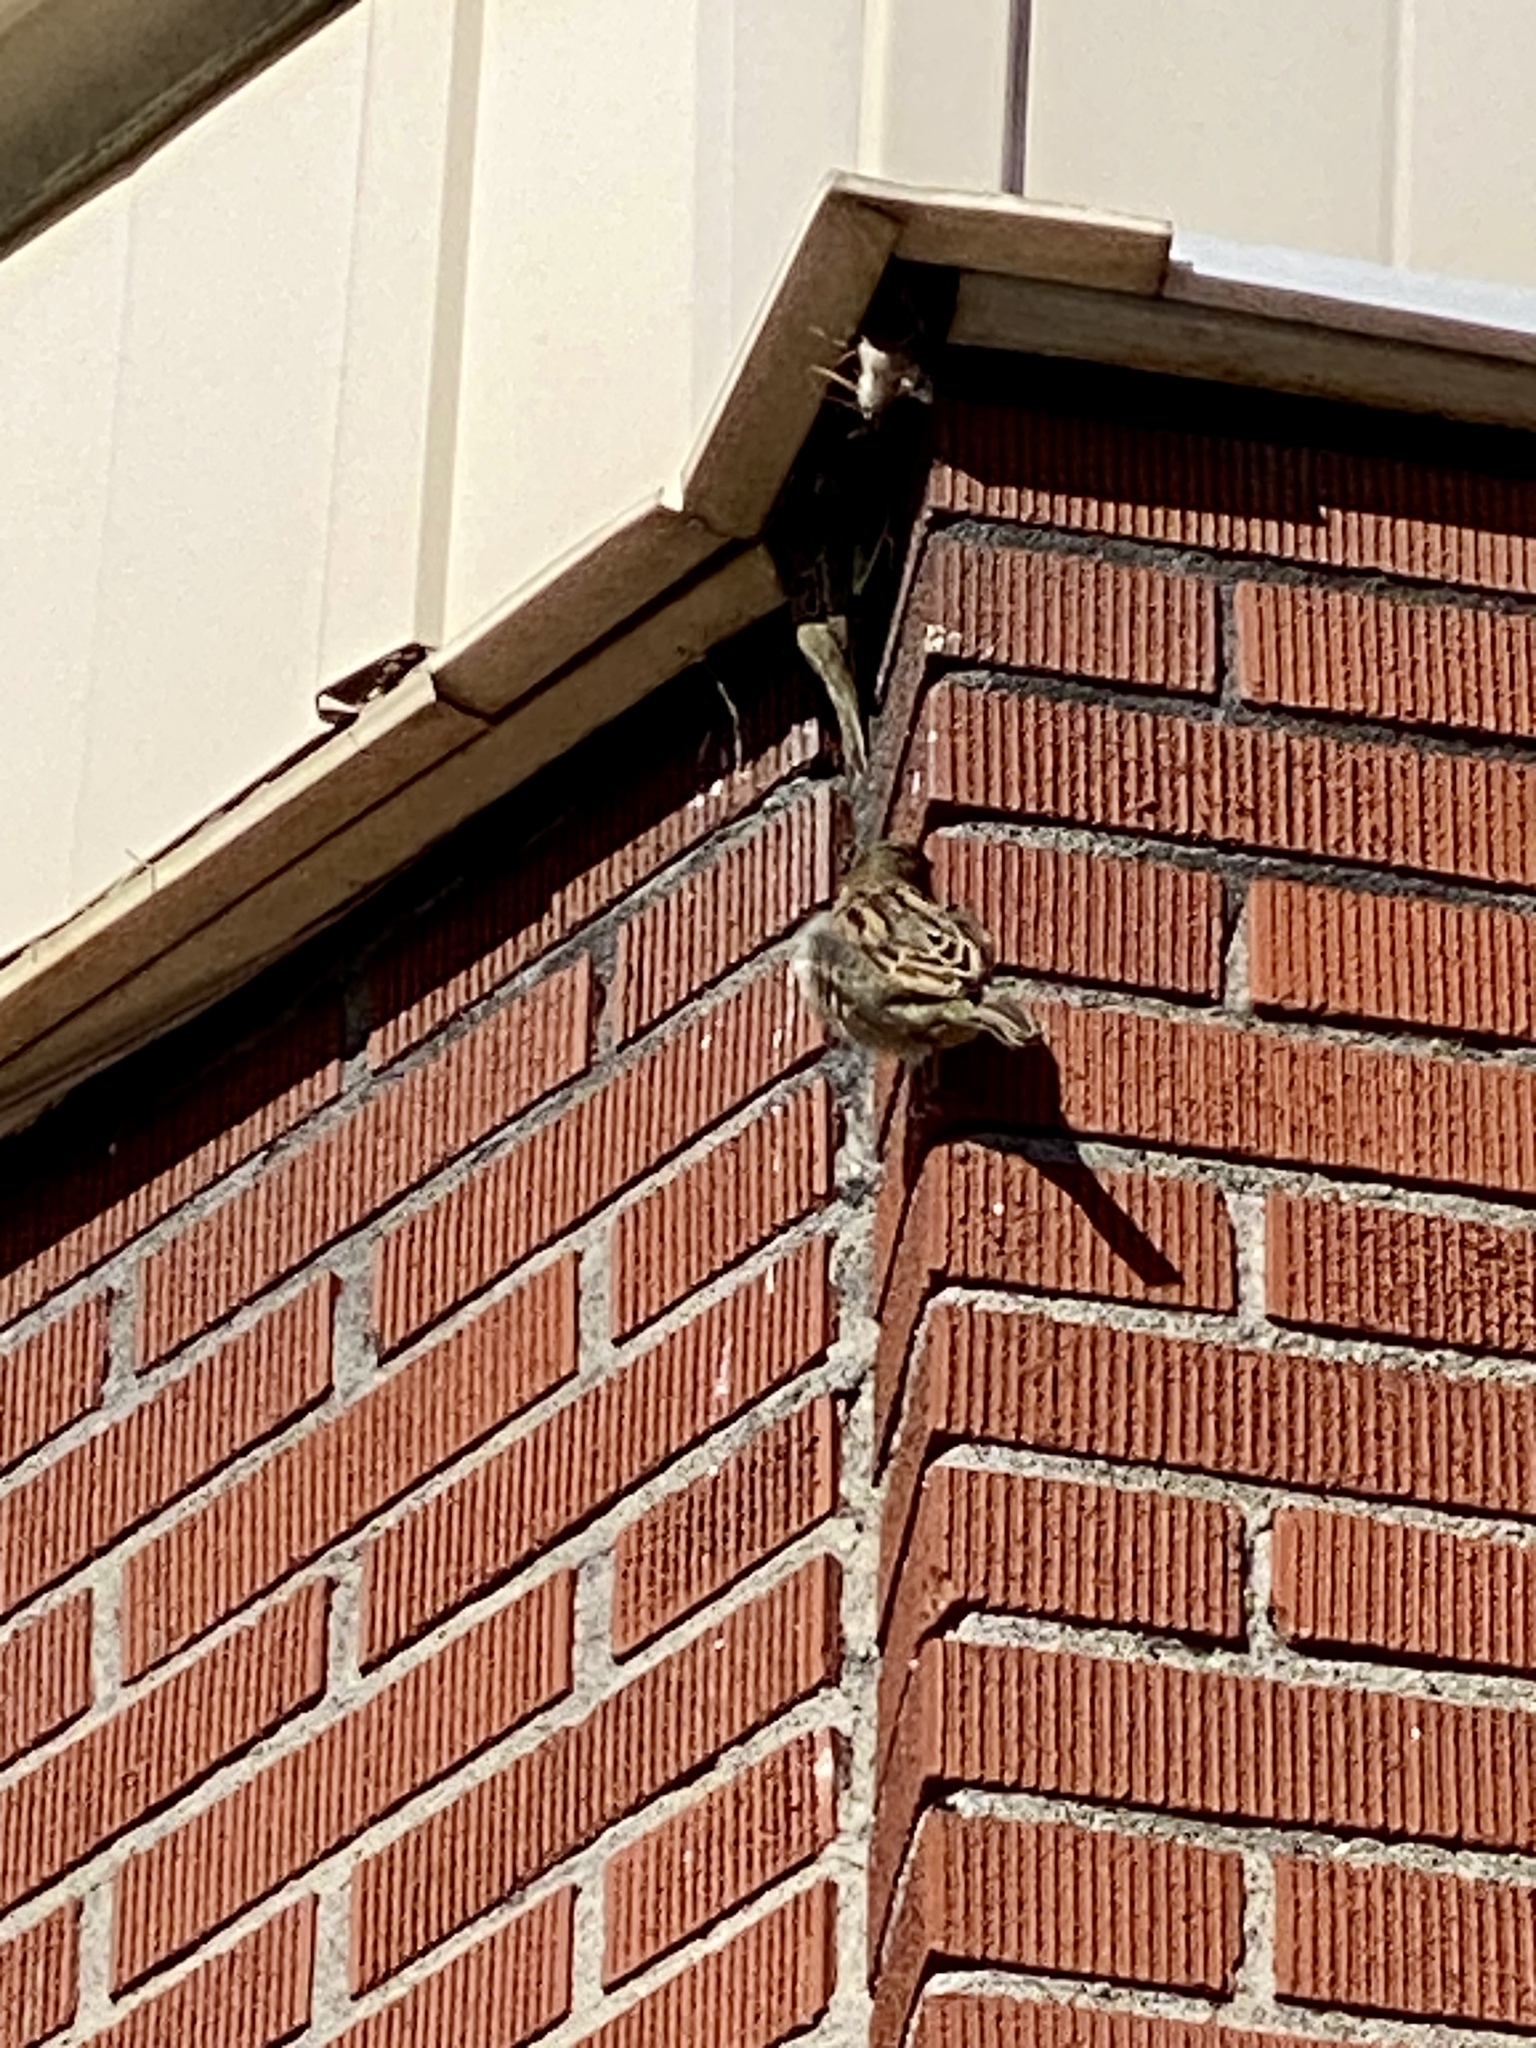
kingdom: Animalia
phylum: Chordata
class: Aves
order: Passeriformes
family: Passeridae
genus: Passer
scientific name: Passer domesticus
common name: House sparrow
